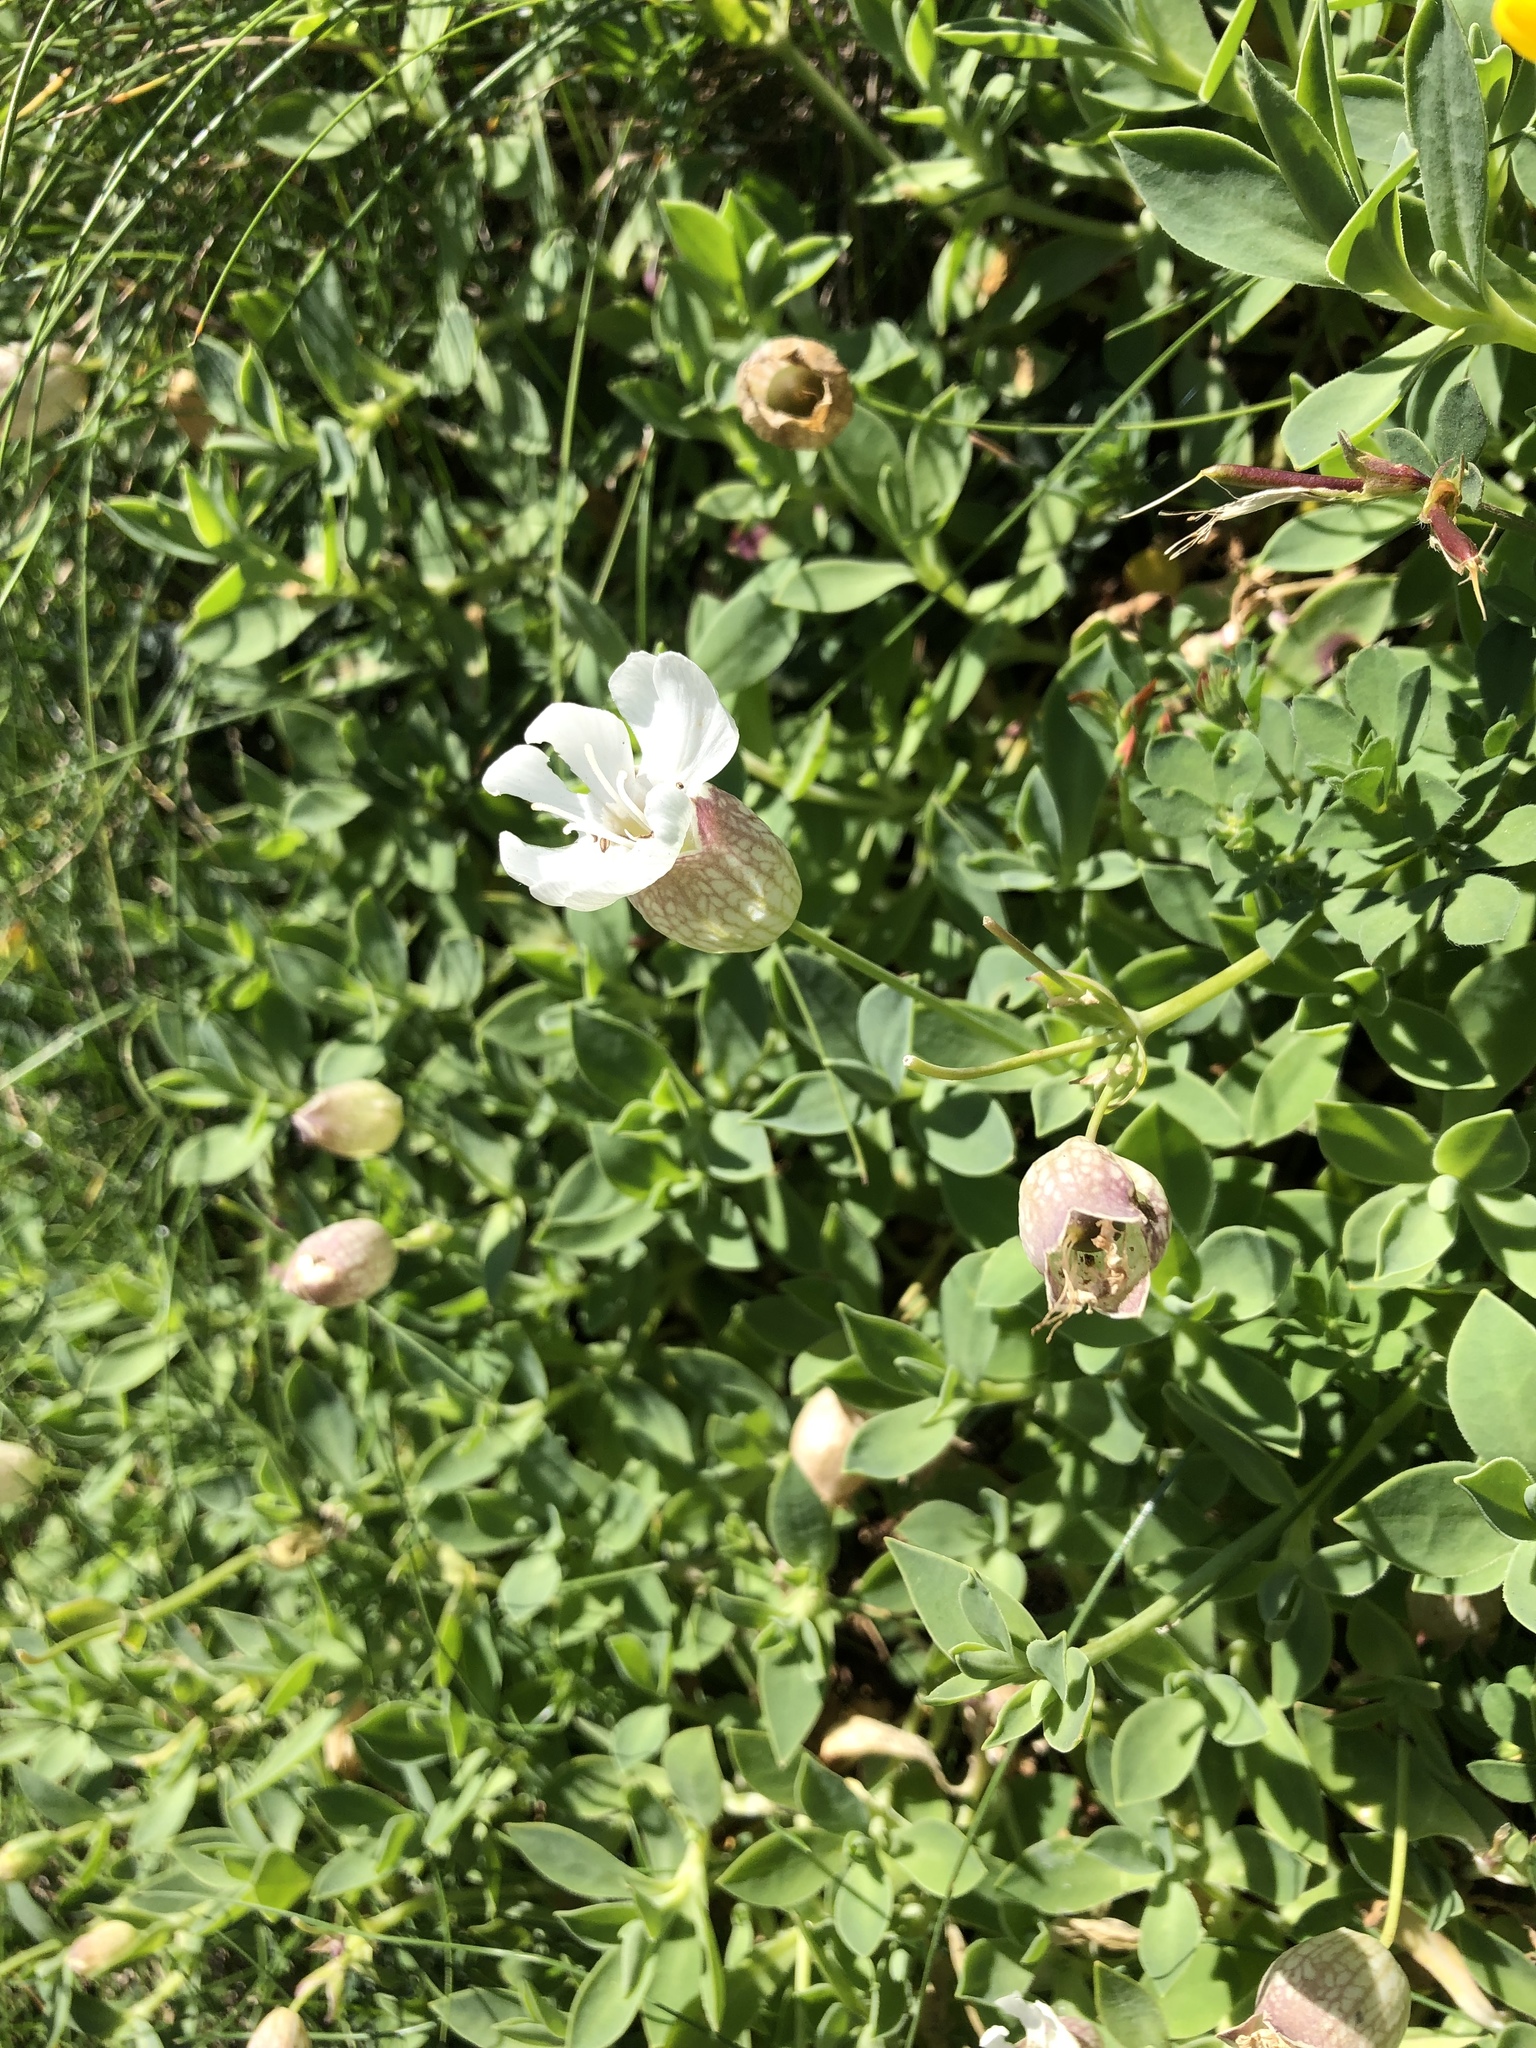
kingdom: Plantae
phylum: Tracheophyta
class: Magnoliopsida
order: Caryophyllales
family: Caryophyllaceae
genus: Silene
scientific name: Silene uniflora
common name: Sea campion
